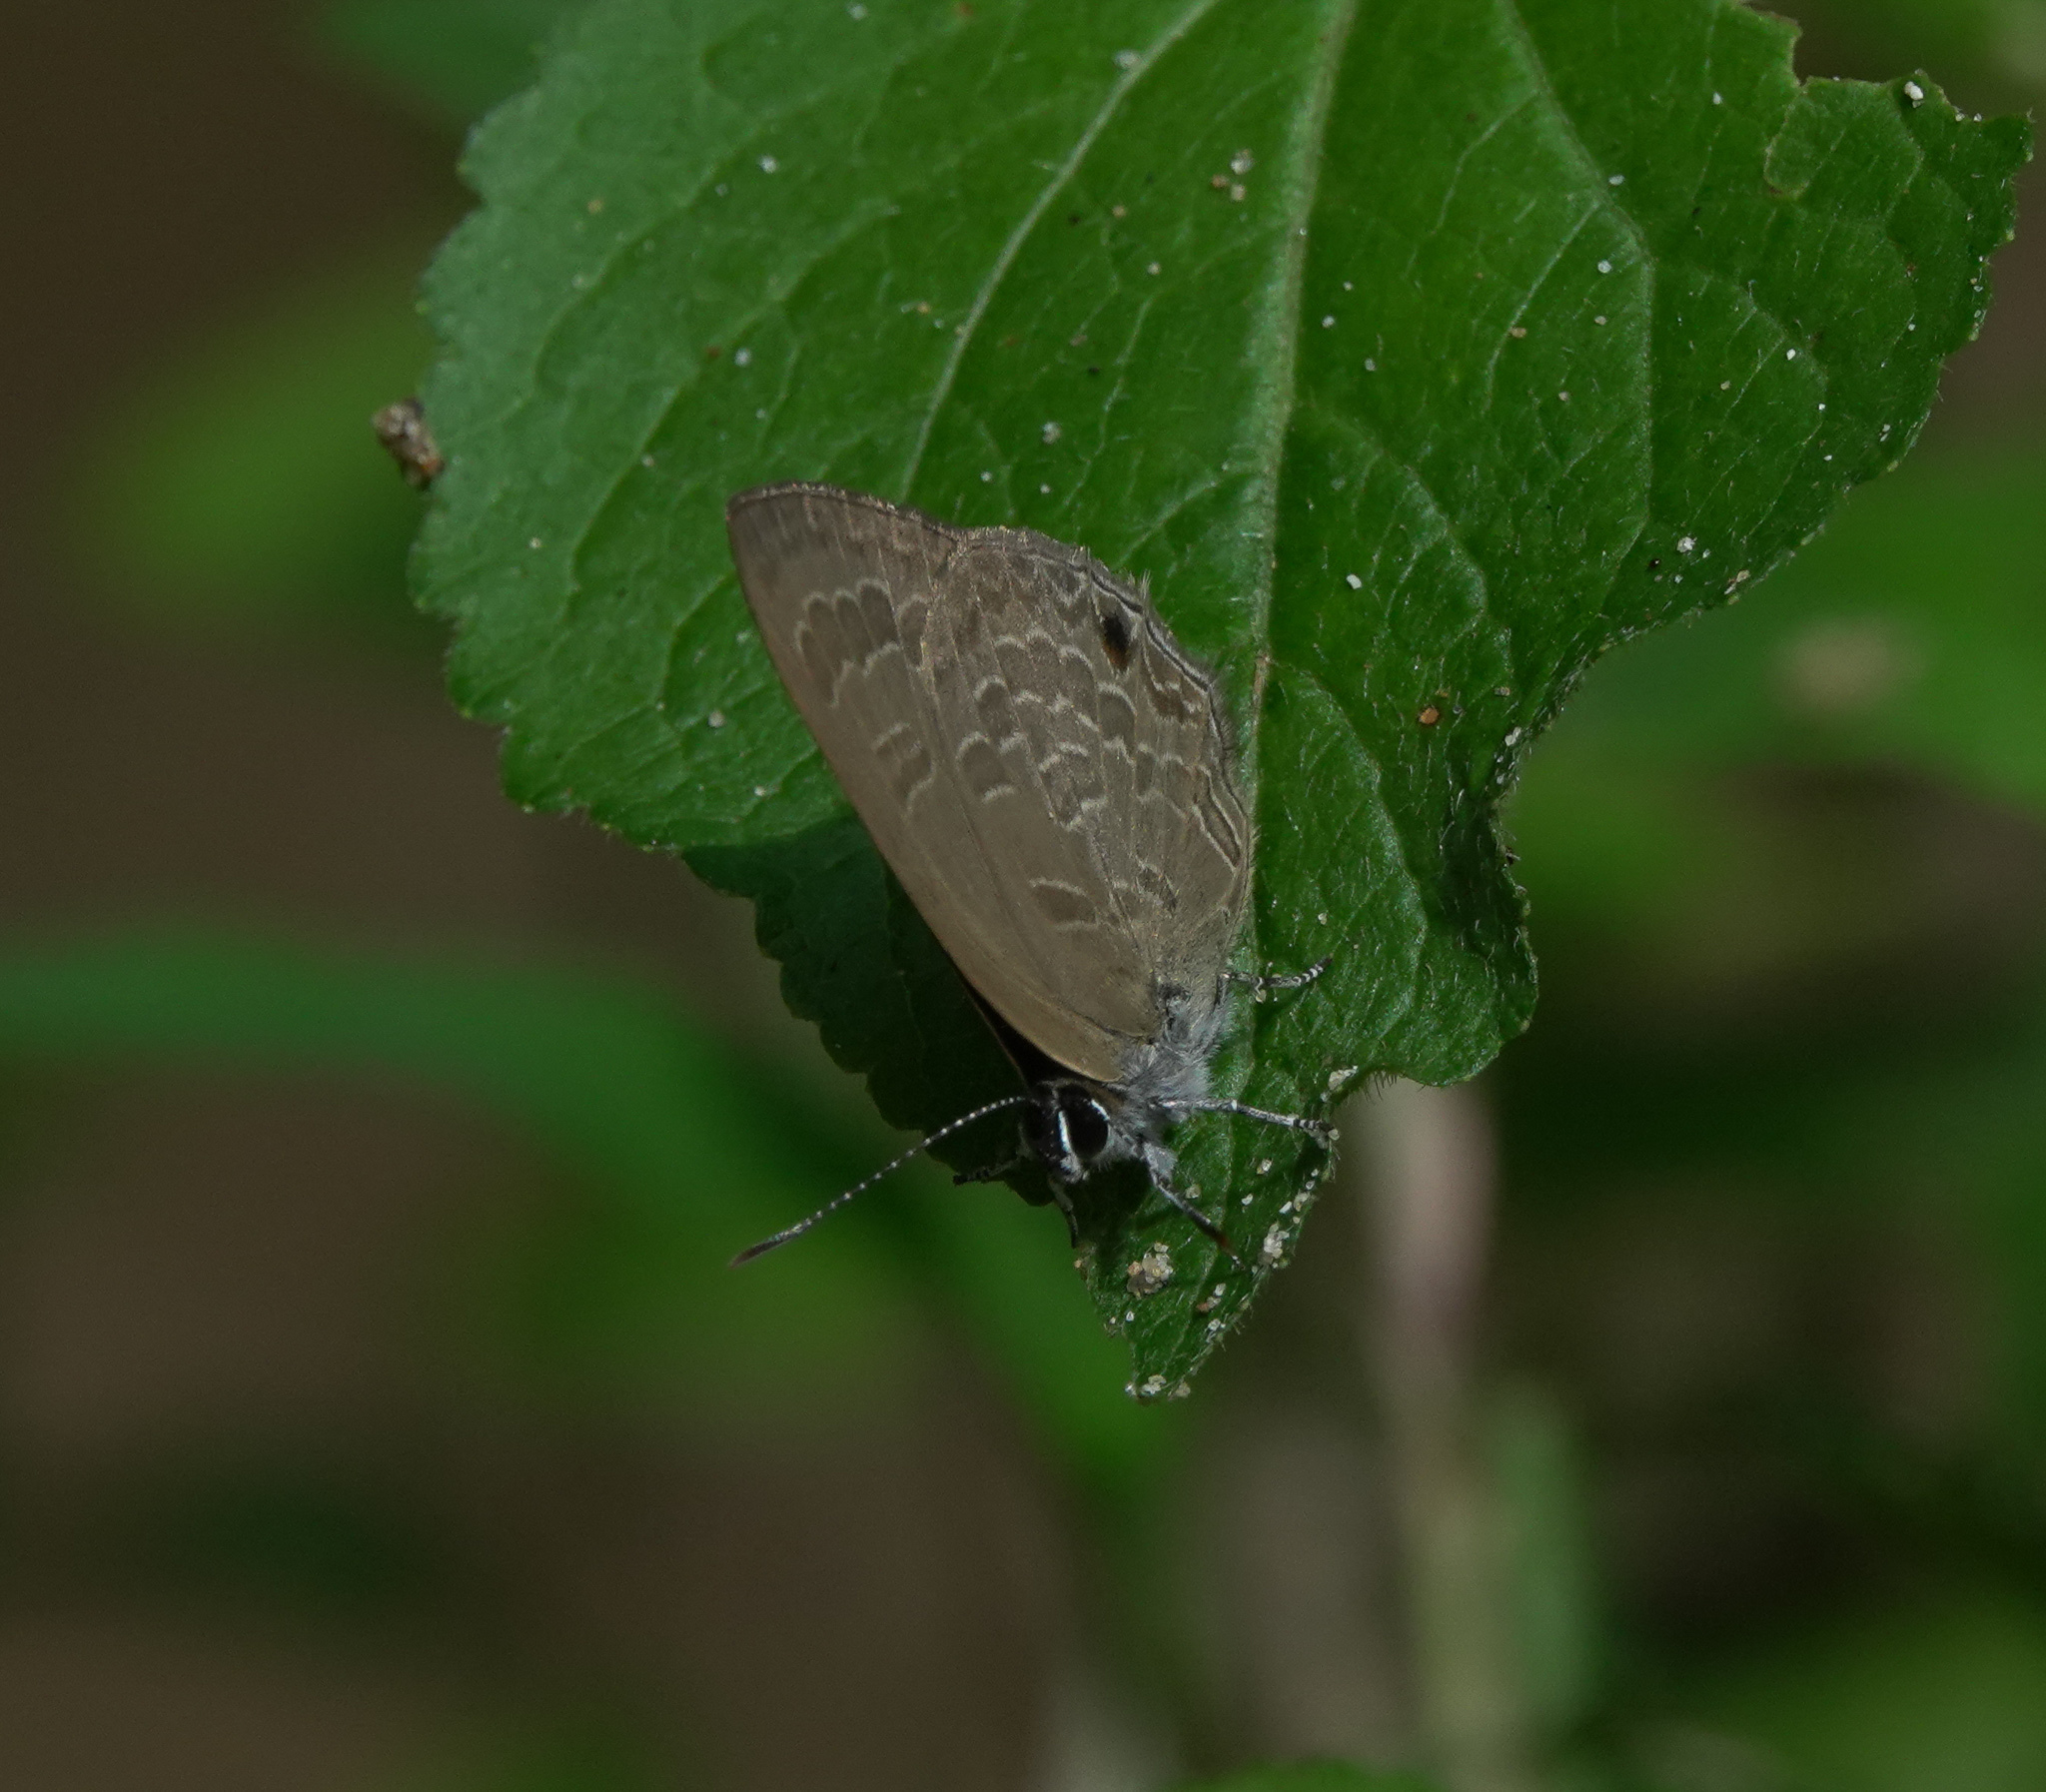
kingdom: Animalia
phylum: Arthropoda
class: Insecta
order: Lepidoptera
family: Lycaenidae
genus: Anthene
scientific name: Anthene emolus
